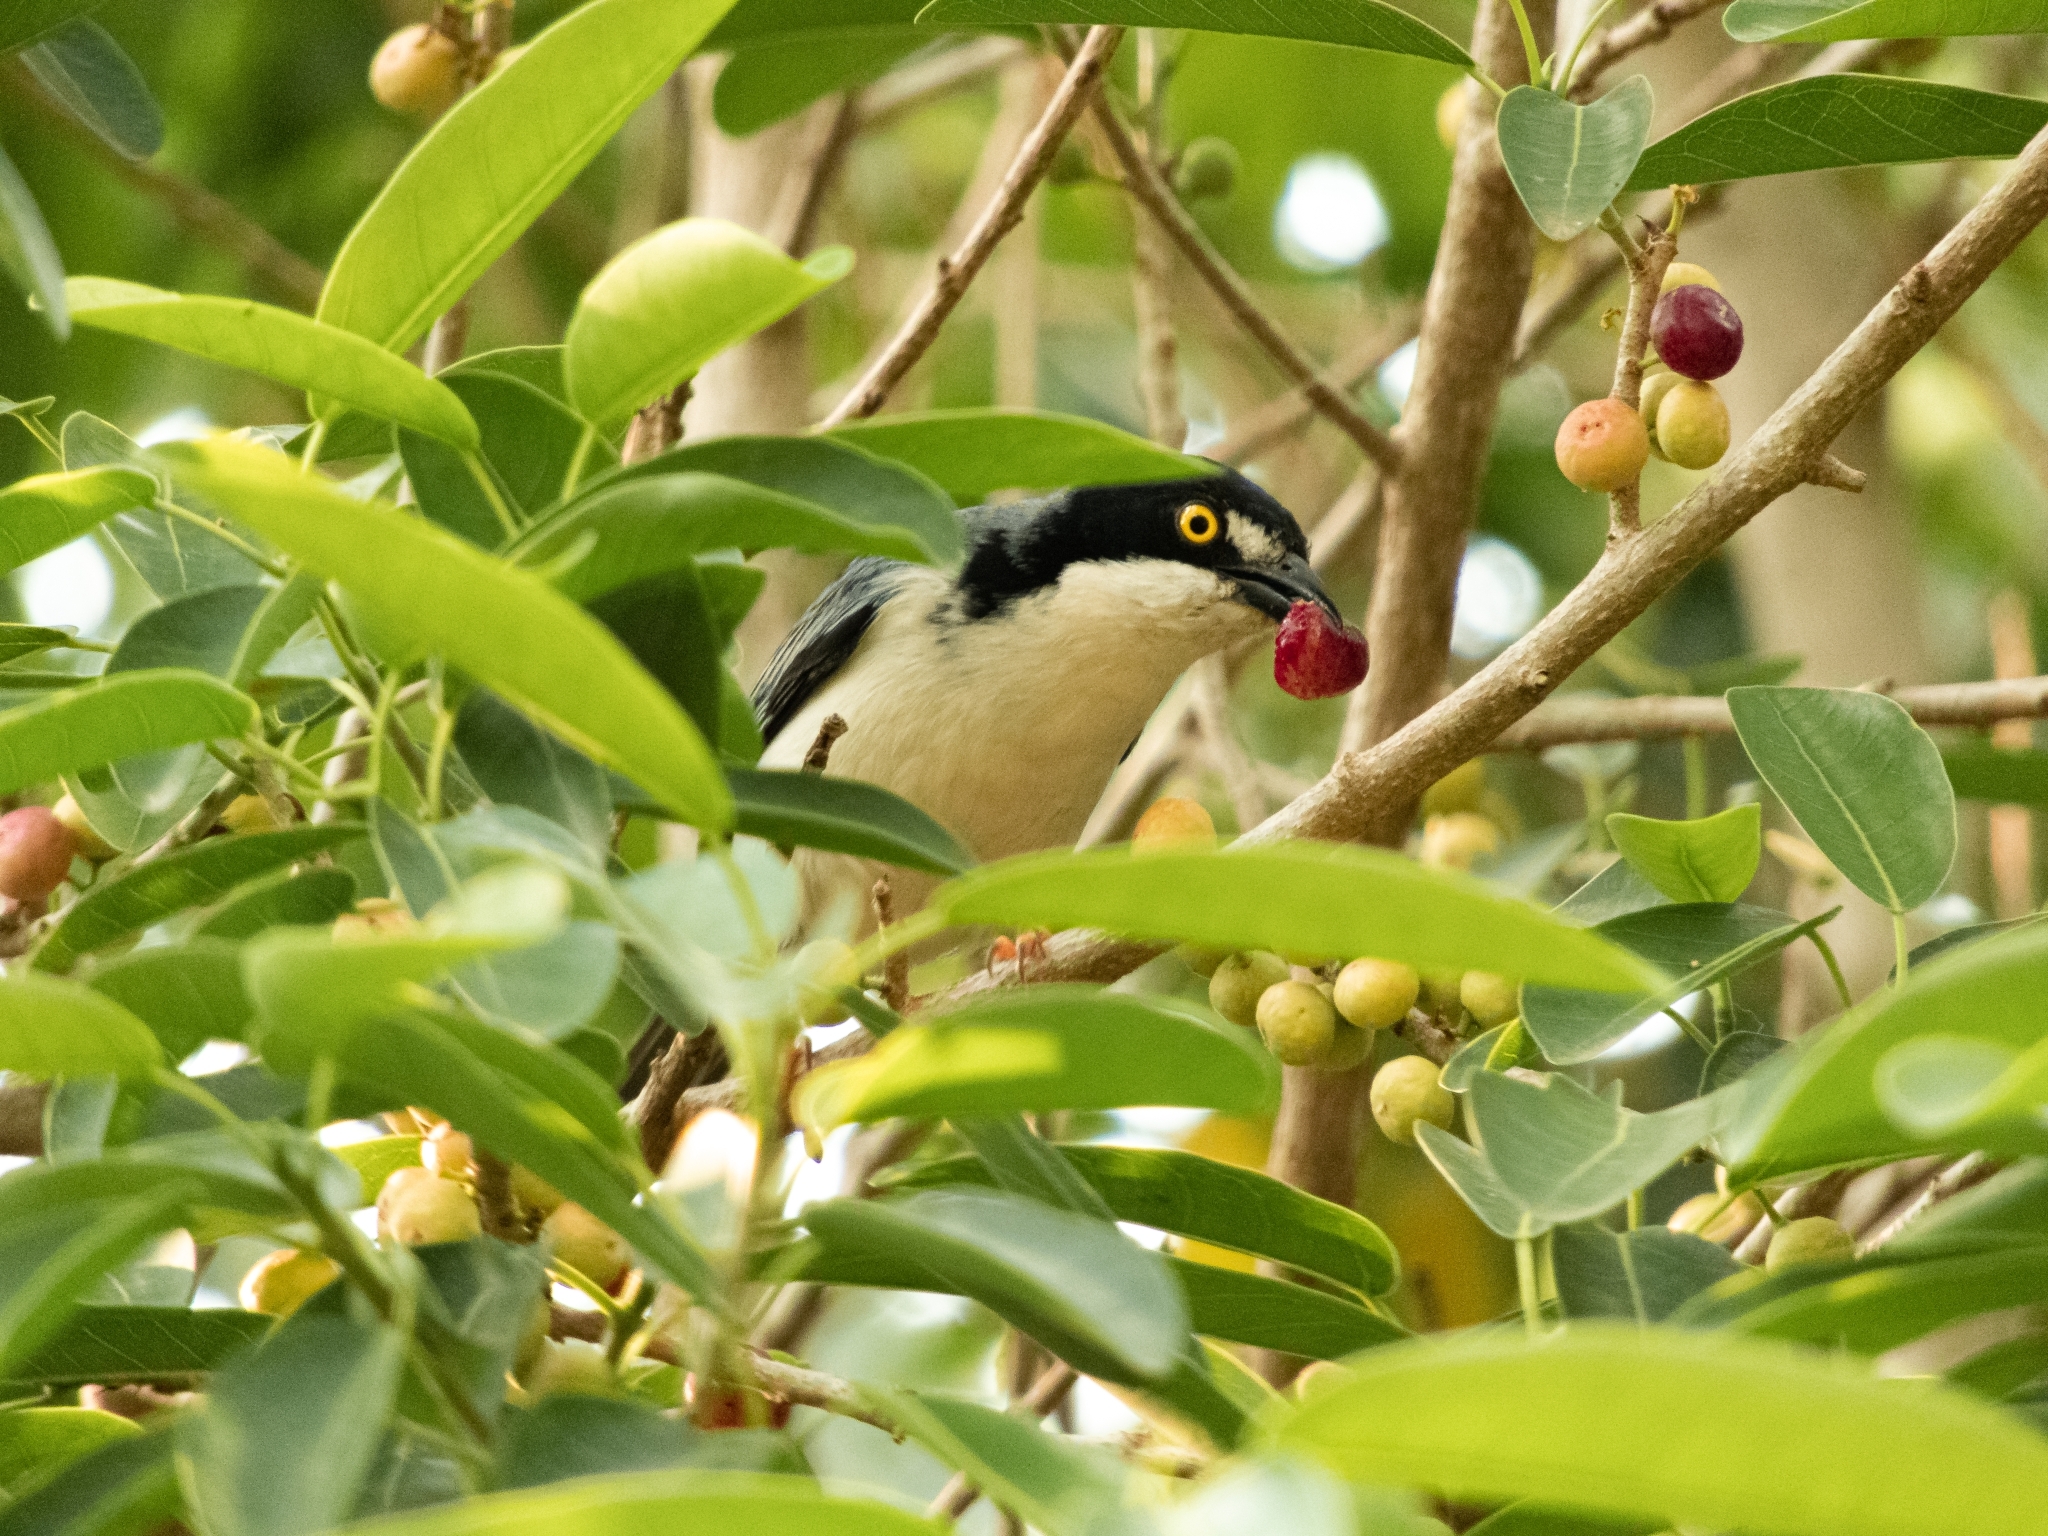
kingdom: Animalia
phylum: Chordata
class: Aves
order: Passeriformes
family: Thraupidae
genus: Nemosia
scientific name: Nemosia pileata
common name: Hooded tanager
